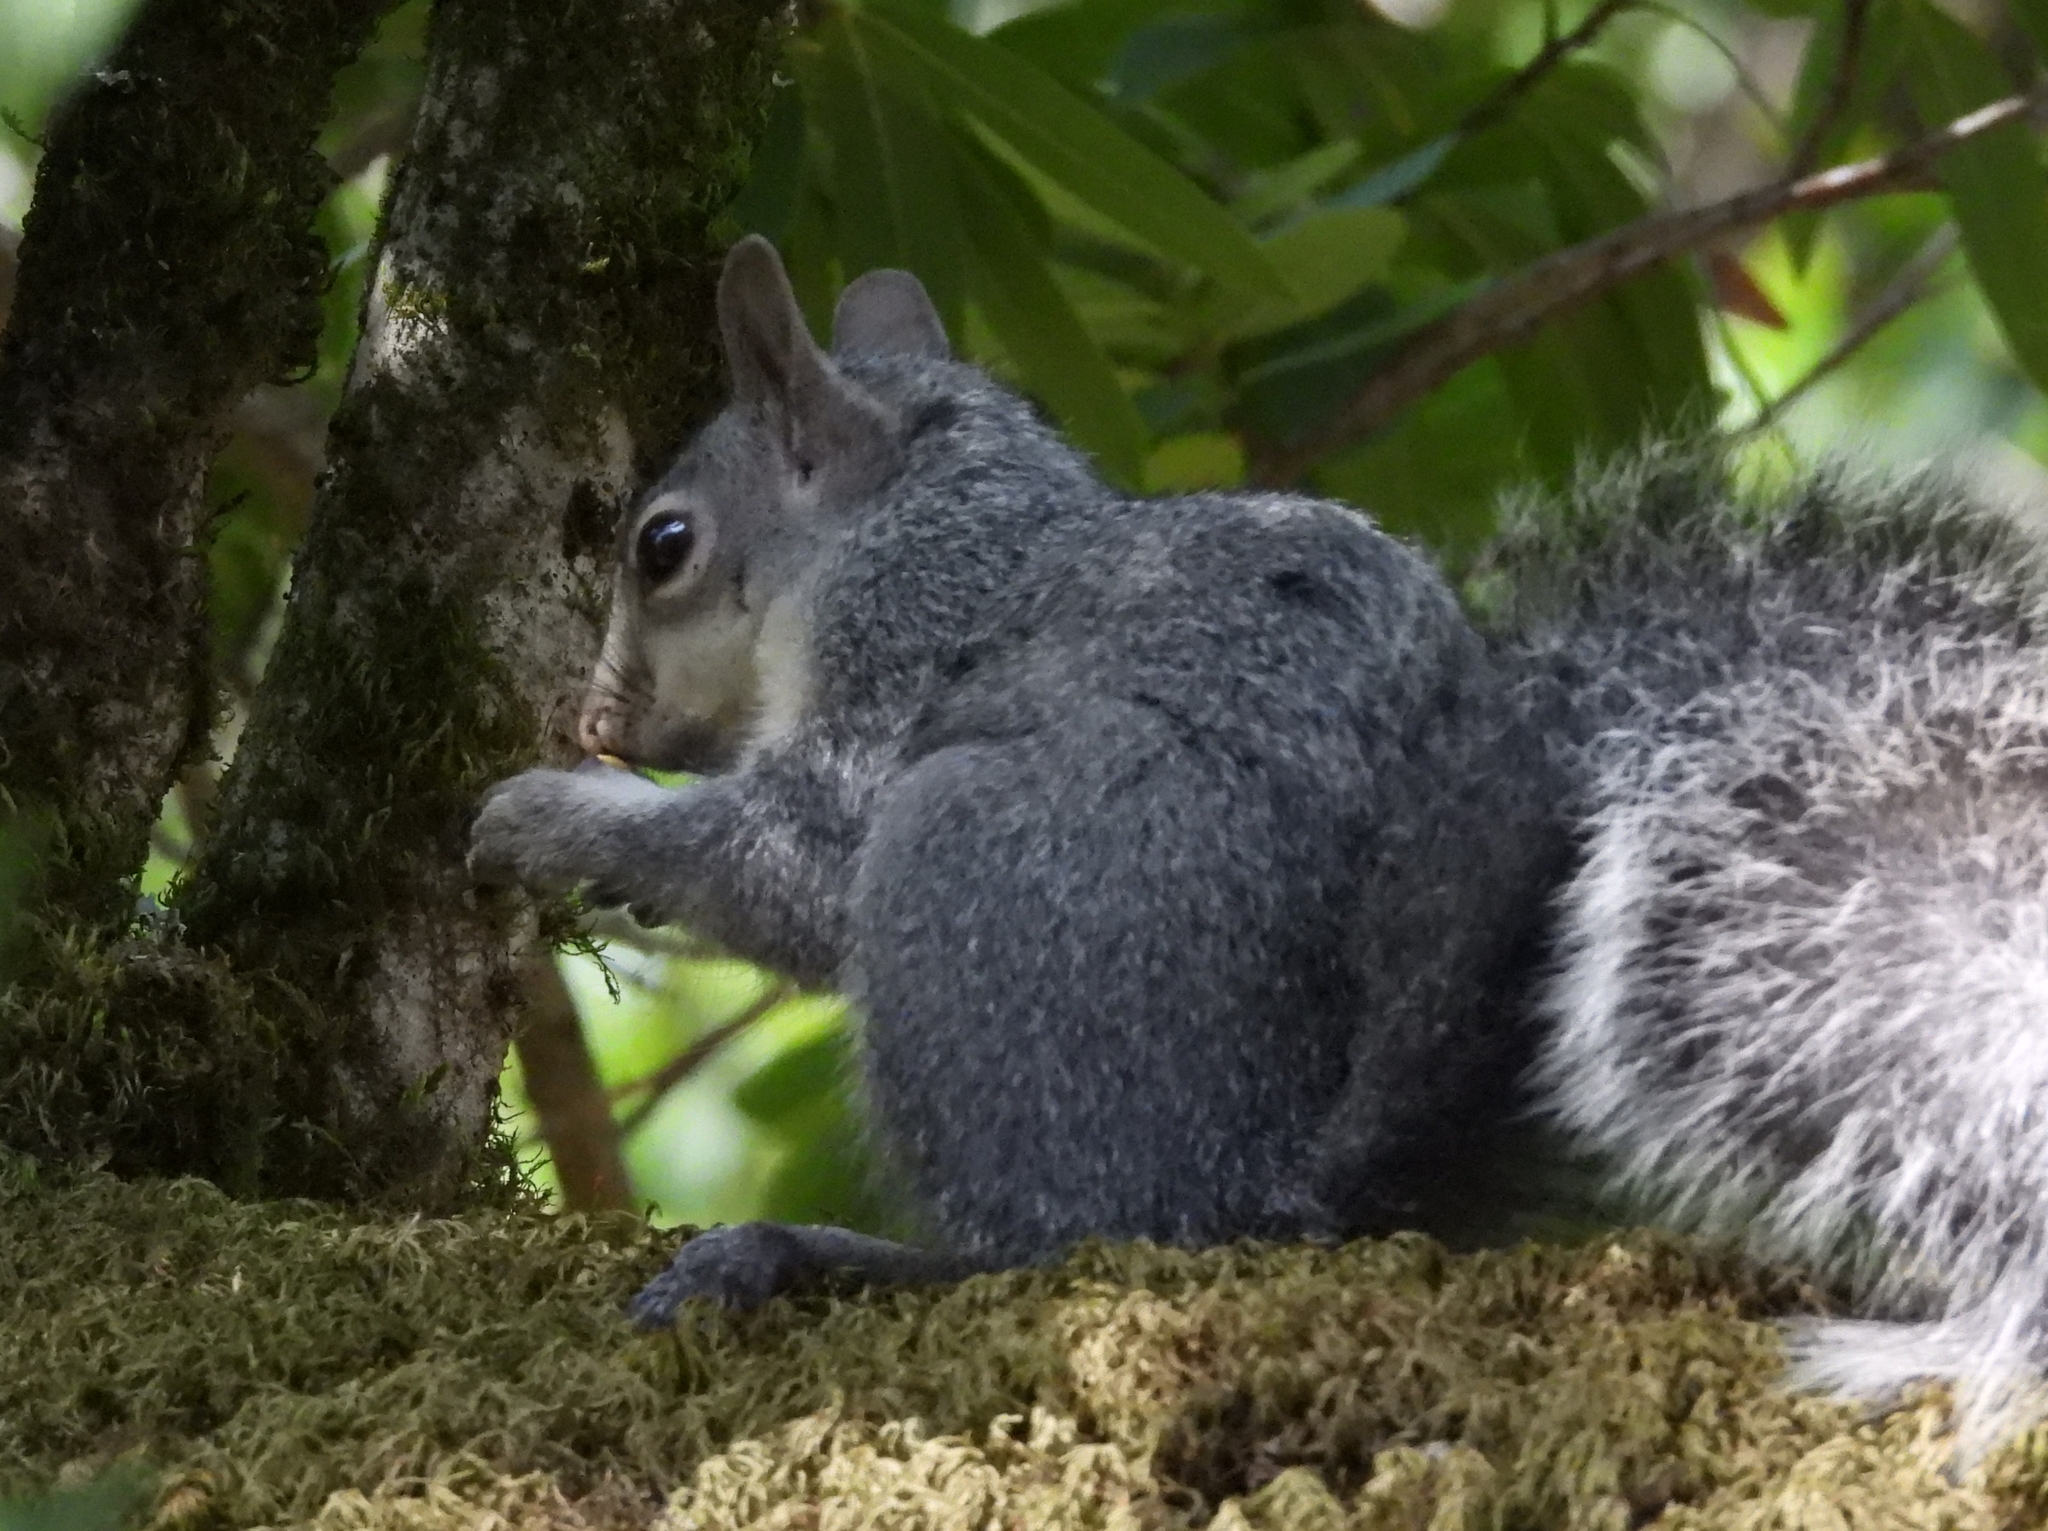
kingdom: Animalia
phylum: Chordata
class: Mammalia
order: Rodentia
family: Sciuridae
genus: Sciurus
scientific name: Sciurus griseus
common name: Western gray squirrel
